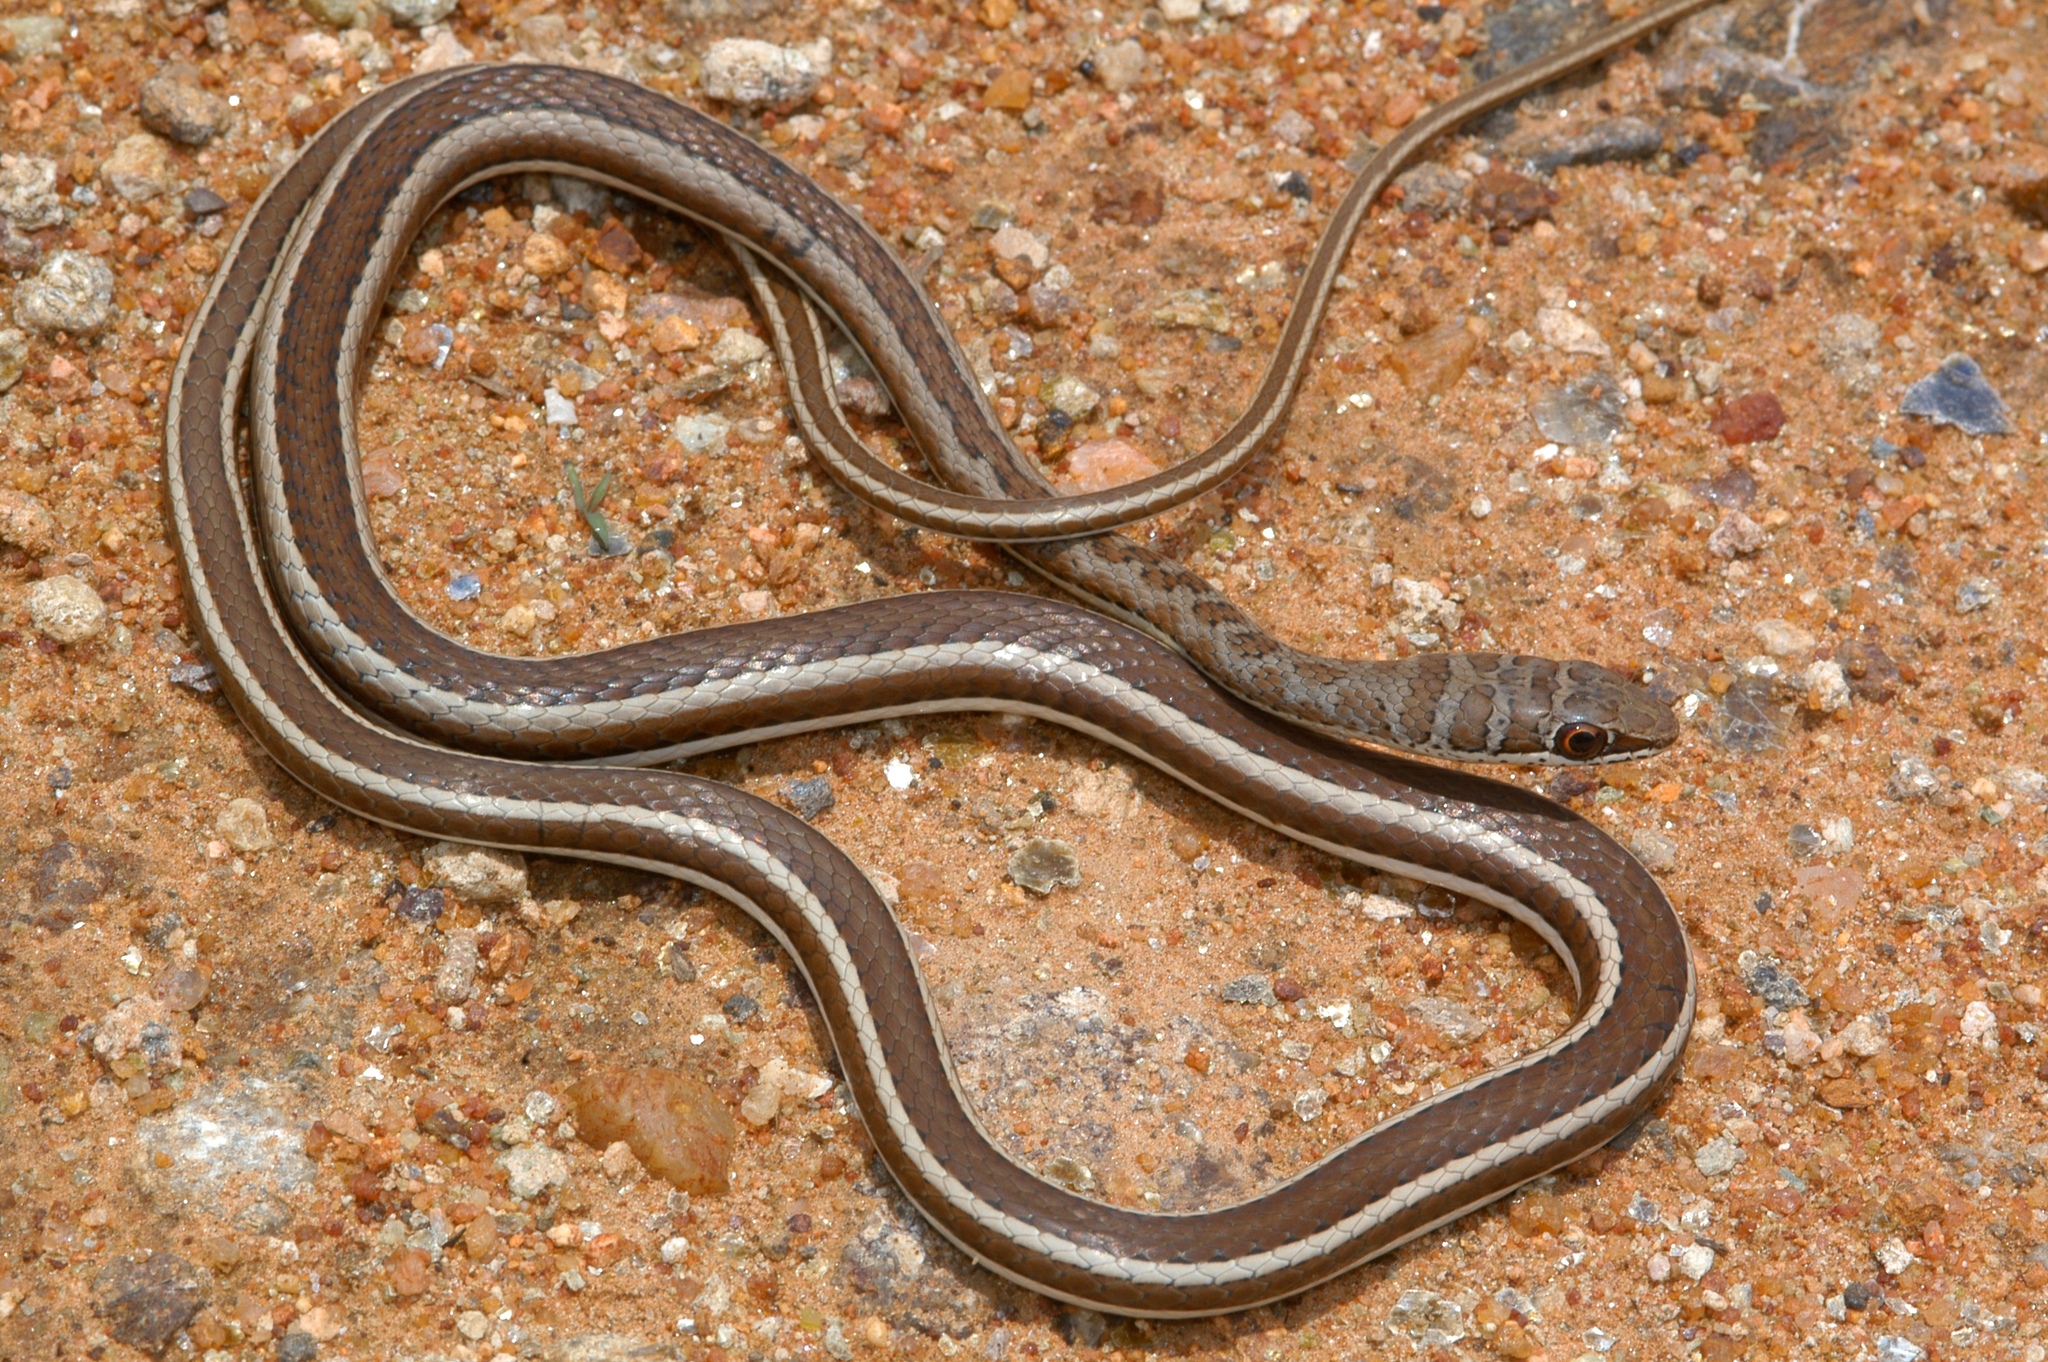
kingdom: Animalia
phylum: Chordata
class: Squamata
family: Psammophiidae
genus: Psammophis
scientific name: Psammophis subtaeniatus
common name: Stripe-bellied sand snake
